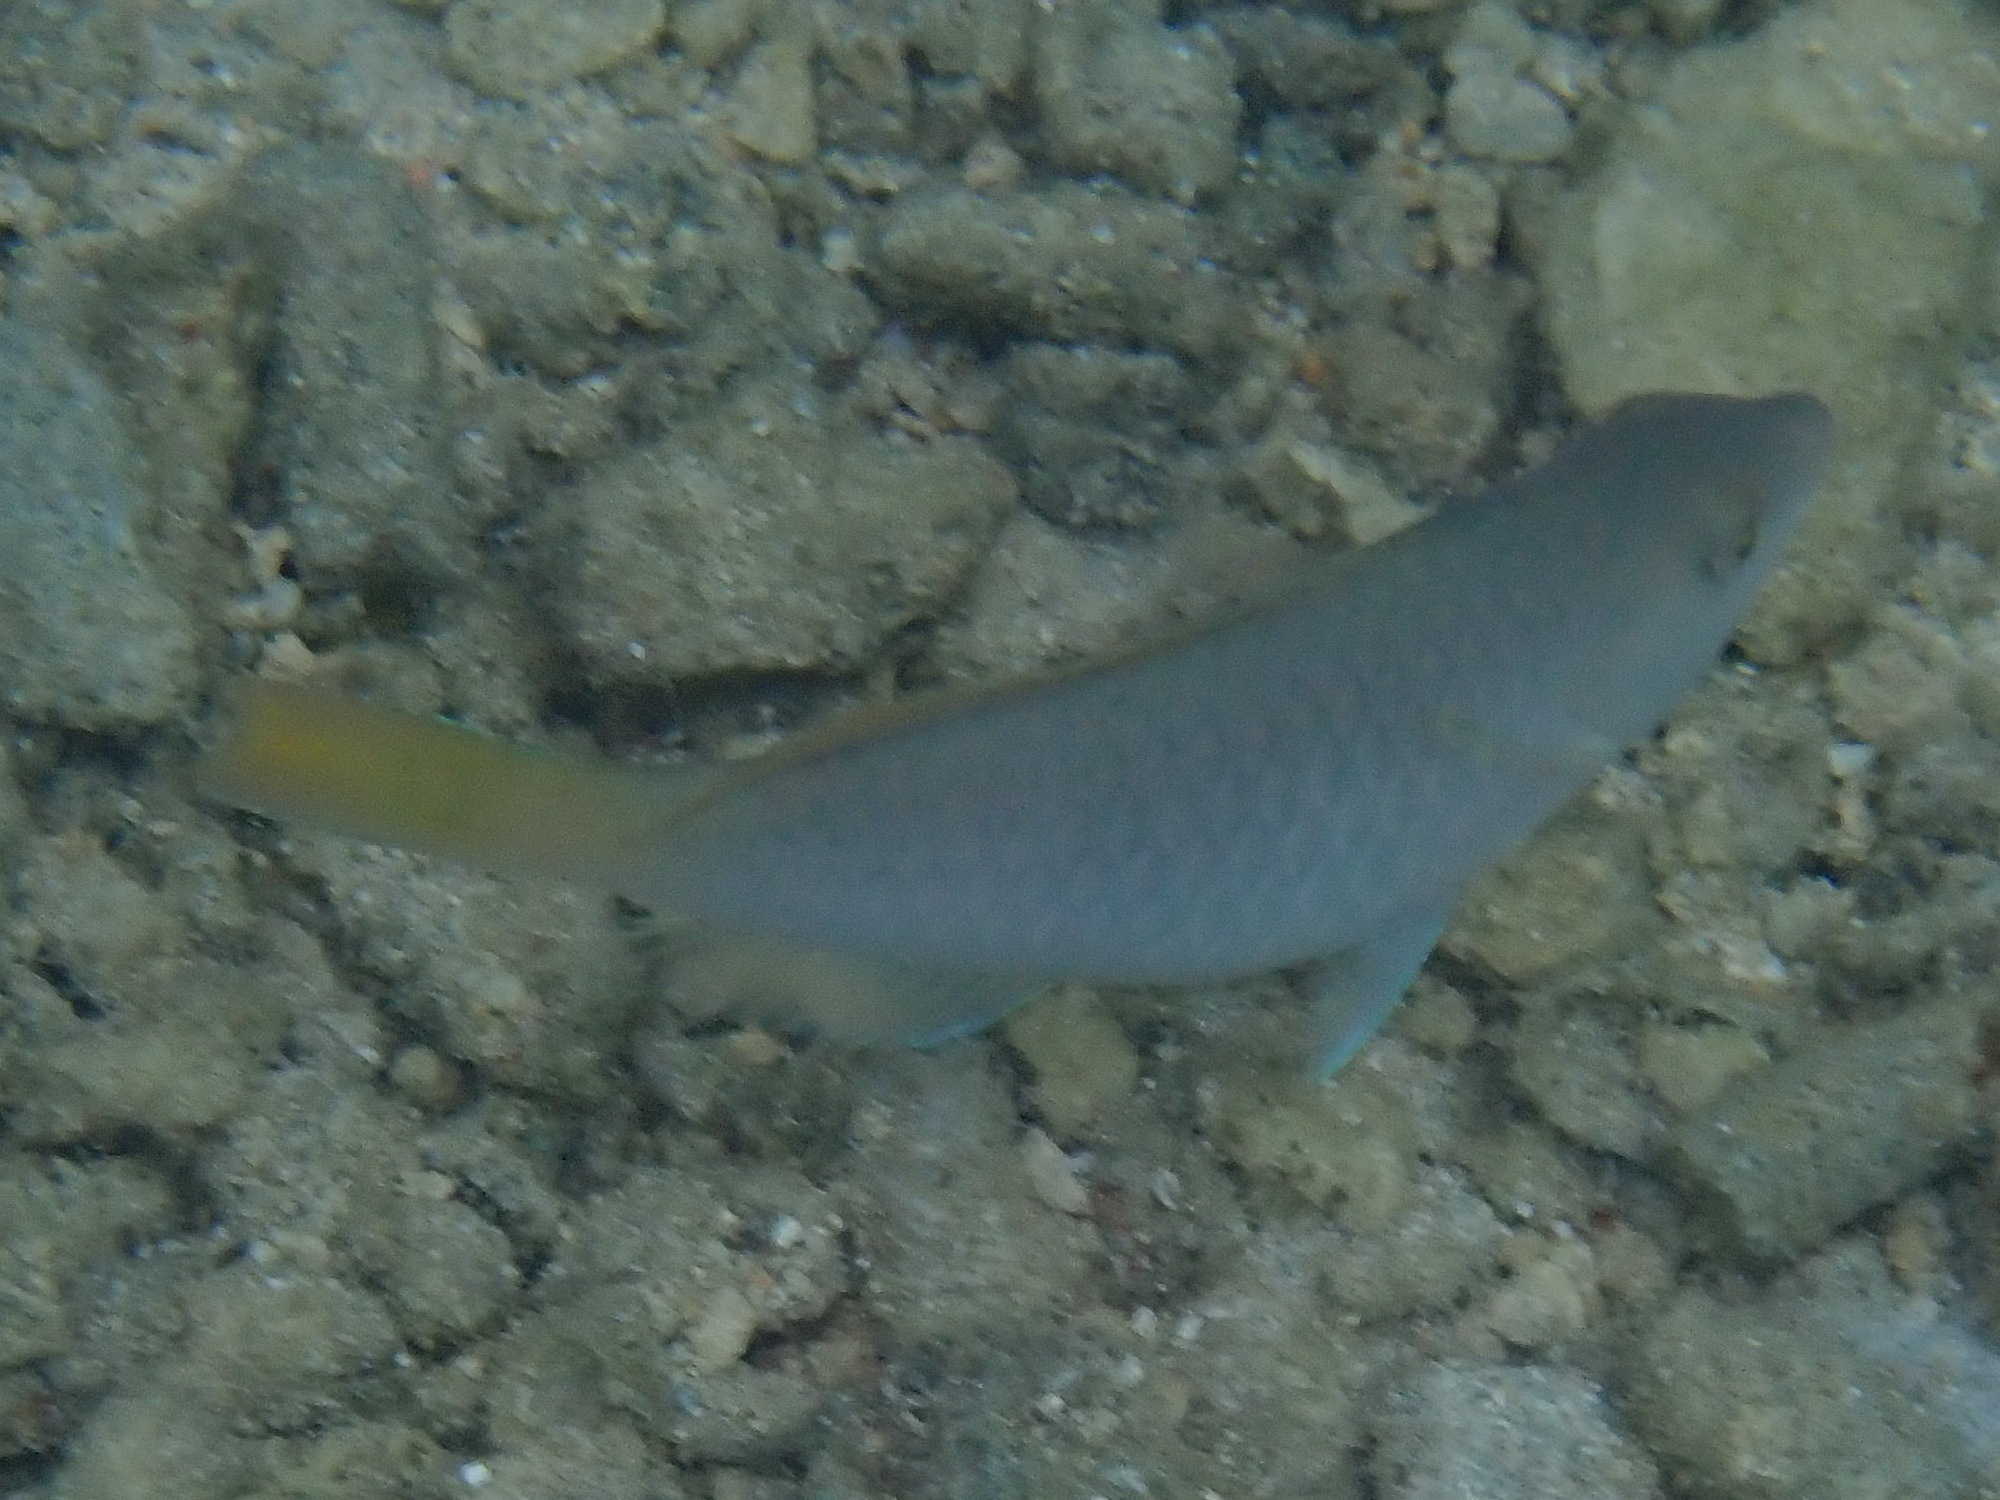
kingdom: Animalia
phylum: Chordata
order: Perciformes
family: Scaridae
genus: Scarus
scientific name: Scarus hypselopterus
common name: Java parrotfish
